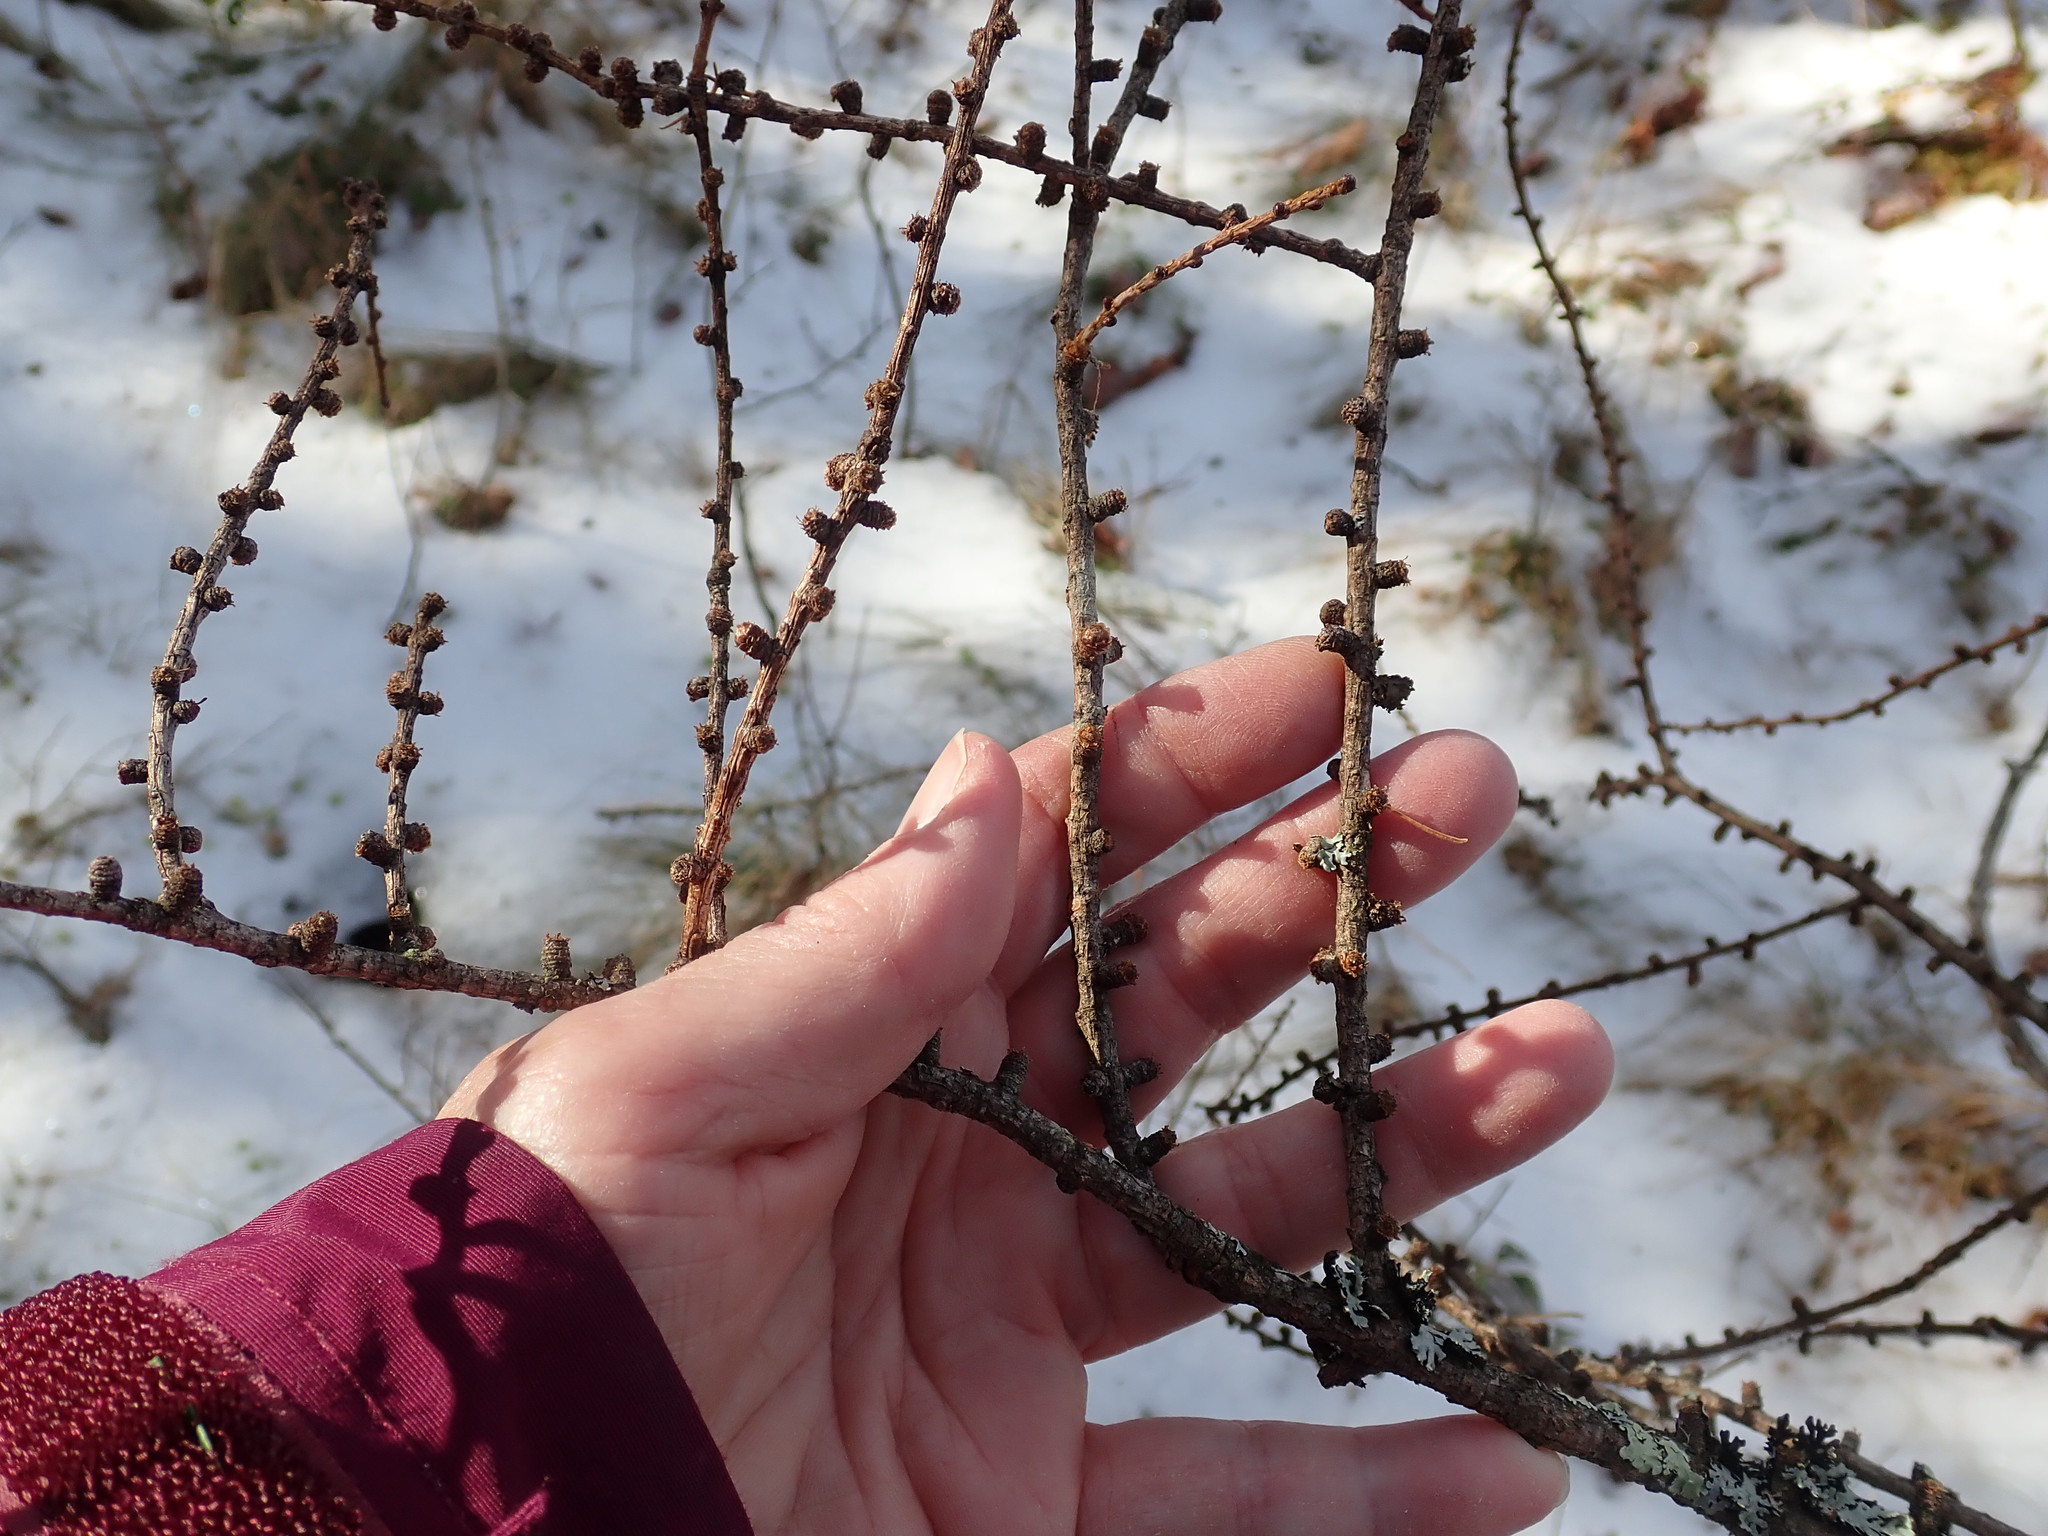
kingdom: Plantae
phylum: Tracheophyta
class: Pinopsida
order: Pinales
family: Pinaceae
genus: Larix
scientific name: Larix
